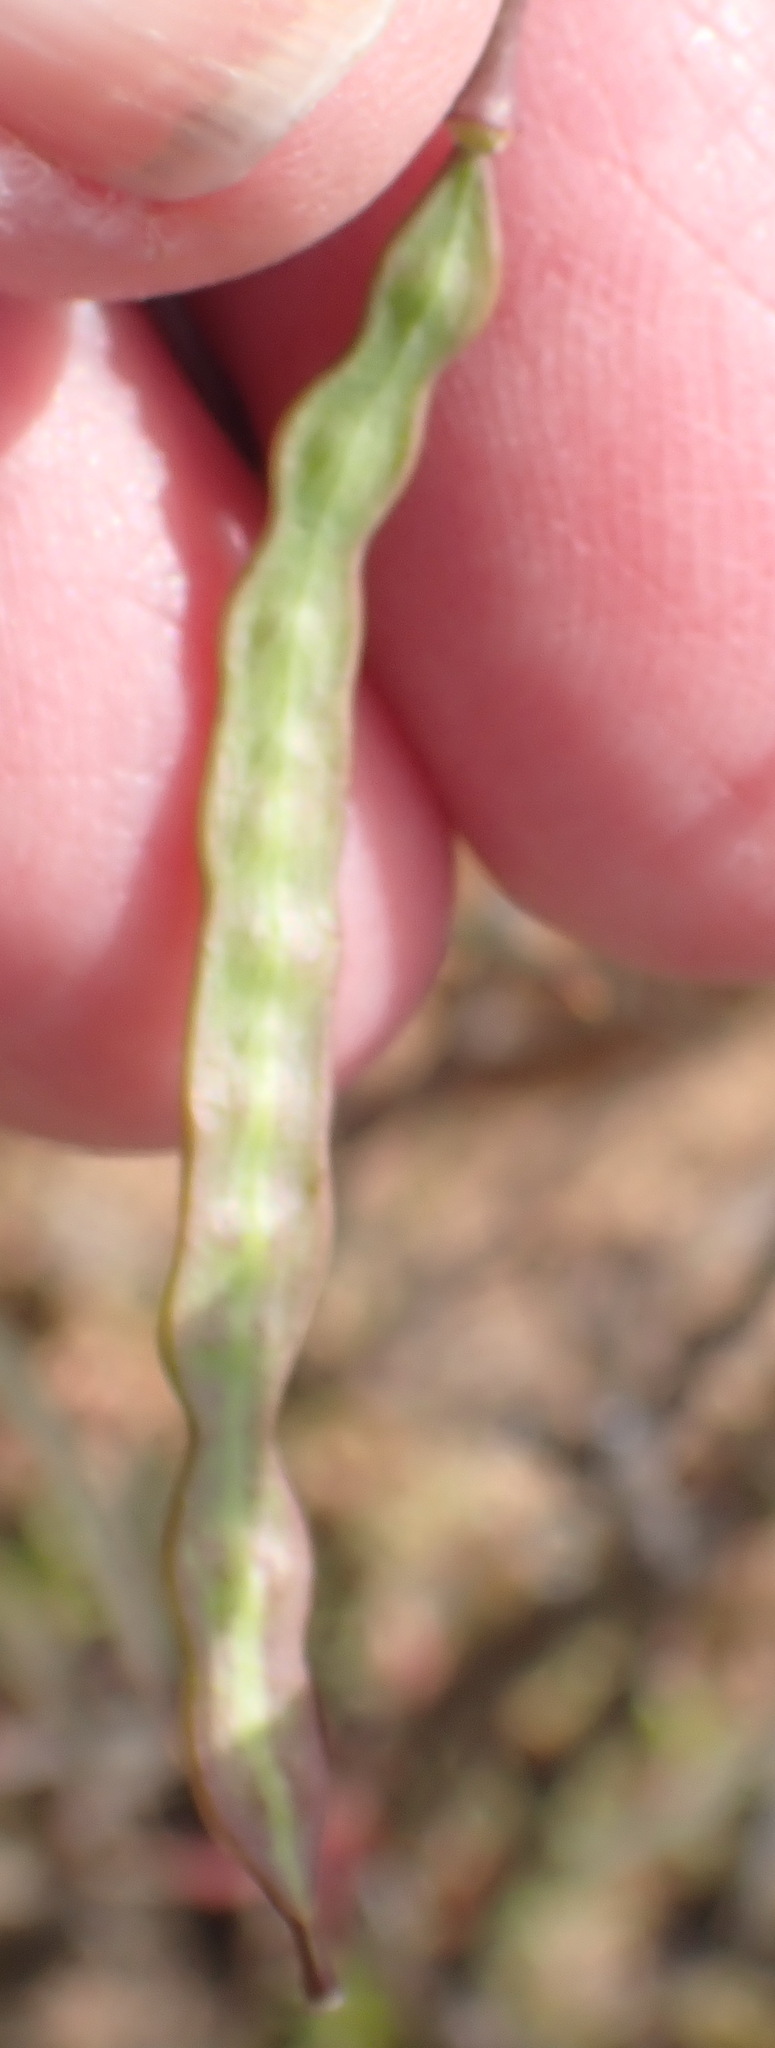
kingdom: Plantae
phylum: Tracheophyta
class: Magnoliopsida
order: Brassicales
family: Brassicaceae
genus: Heliophila
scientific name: Heliophila suavissima
